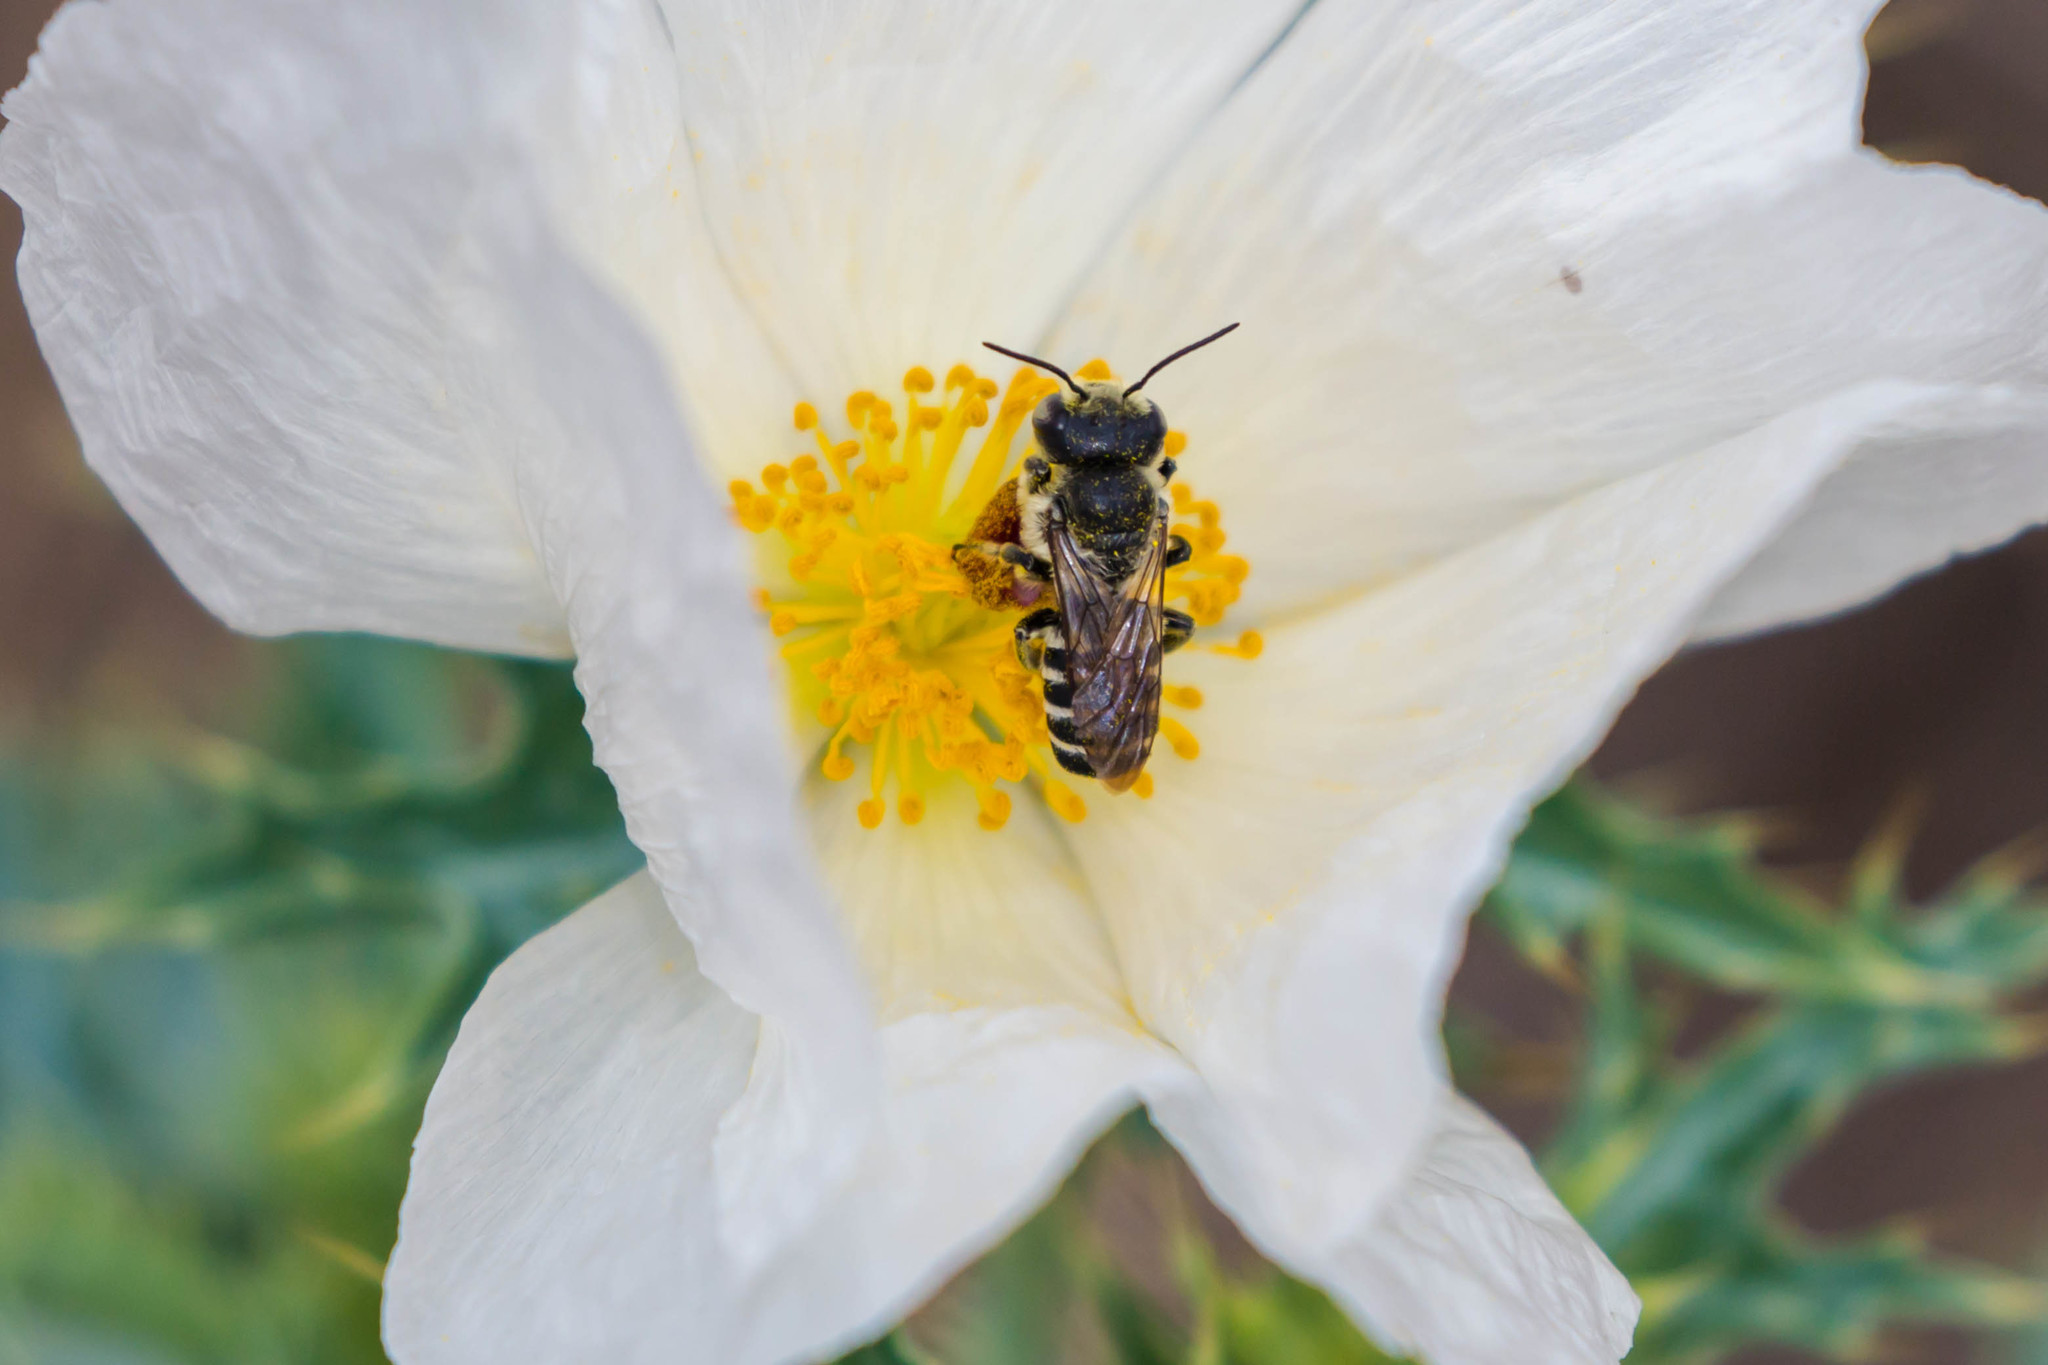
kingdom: Animalia
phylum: Arthropoda
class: Insecta
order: Hymenoptera
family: Megachilidae
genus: Megachile
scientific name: Megachile
